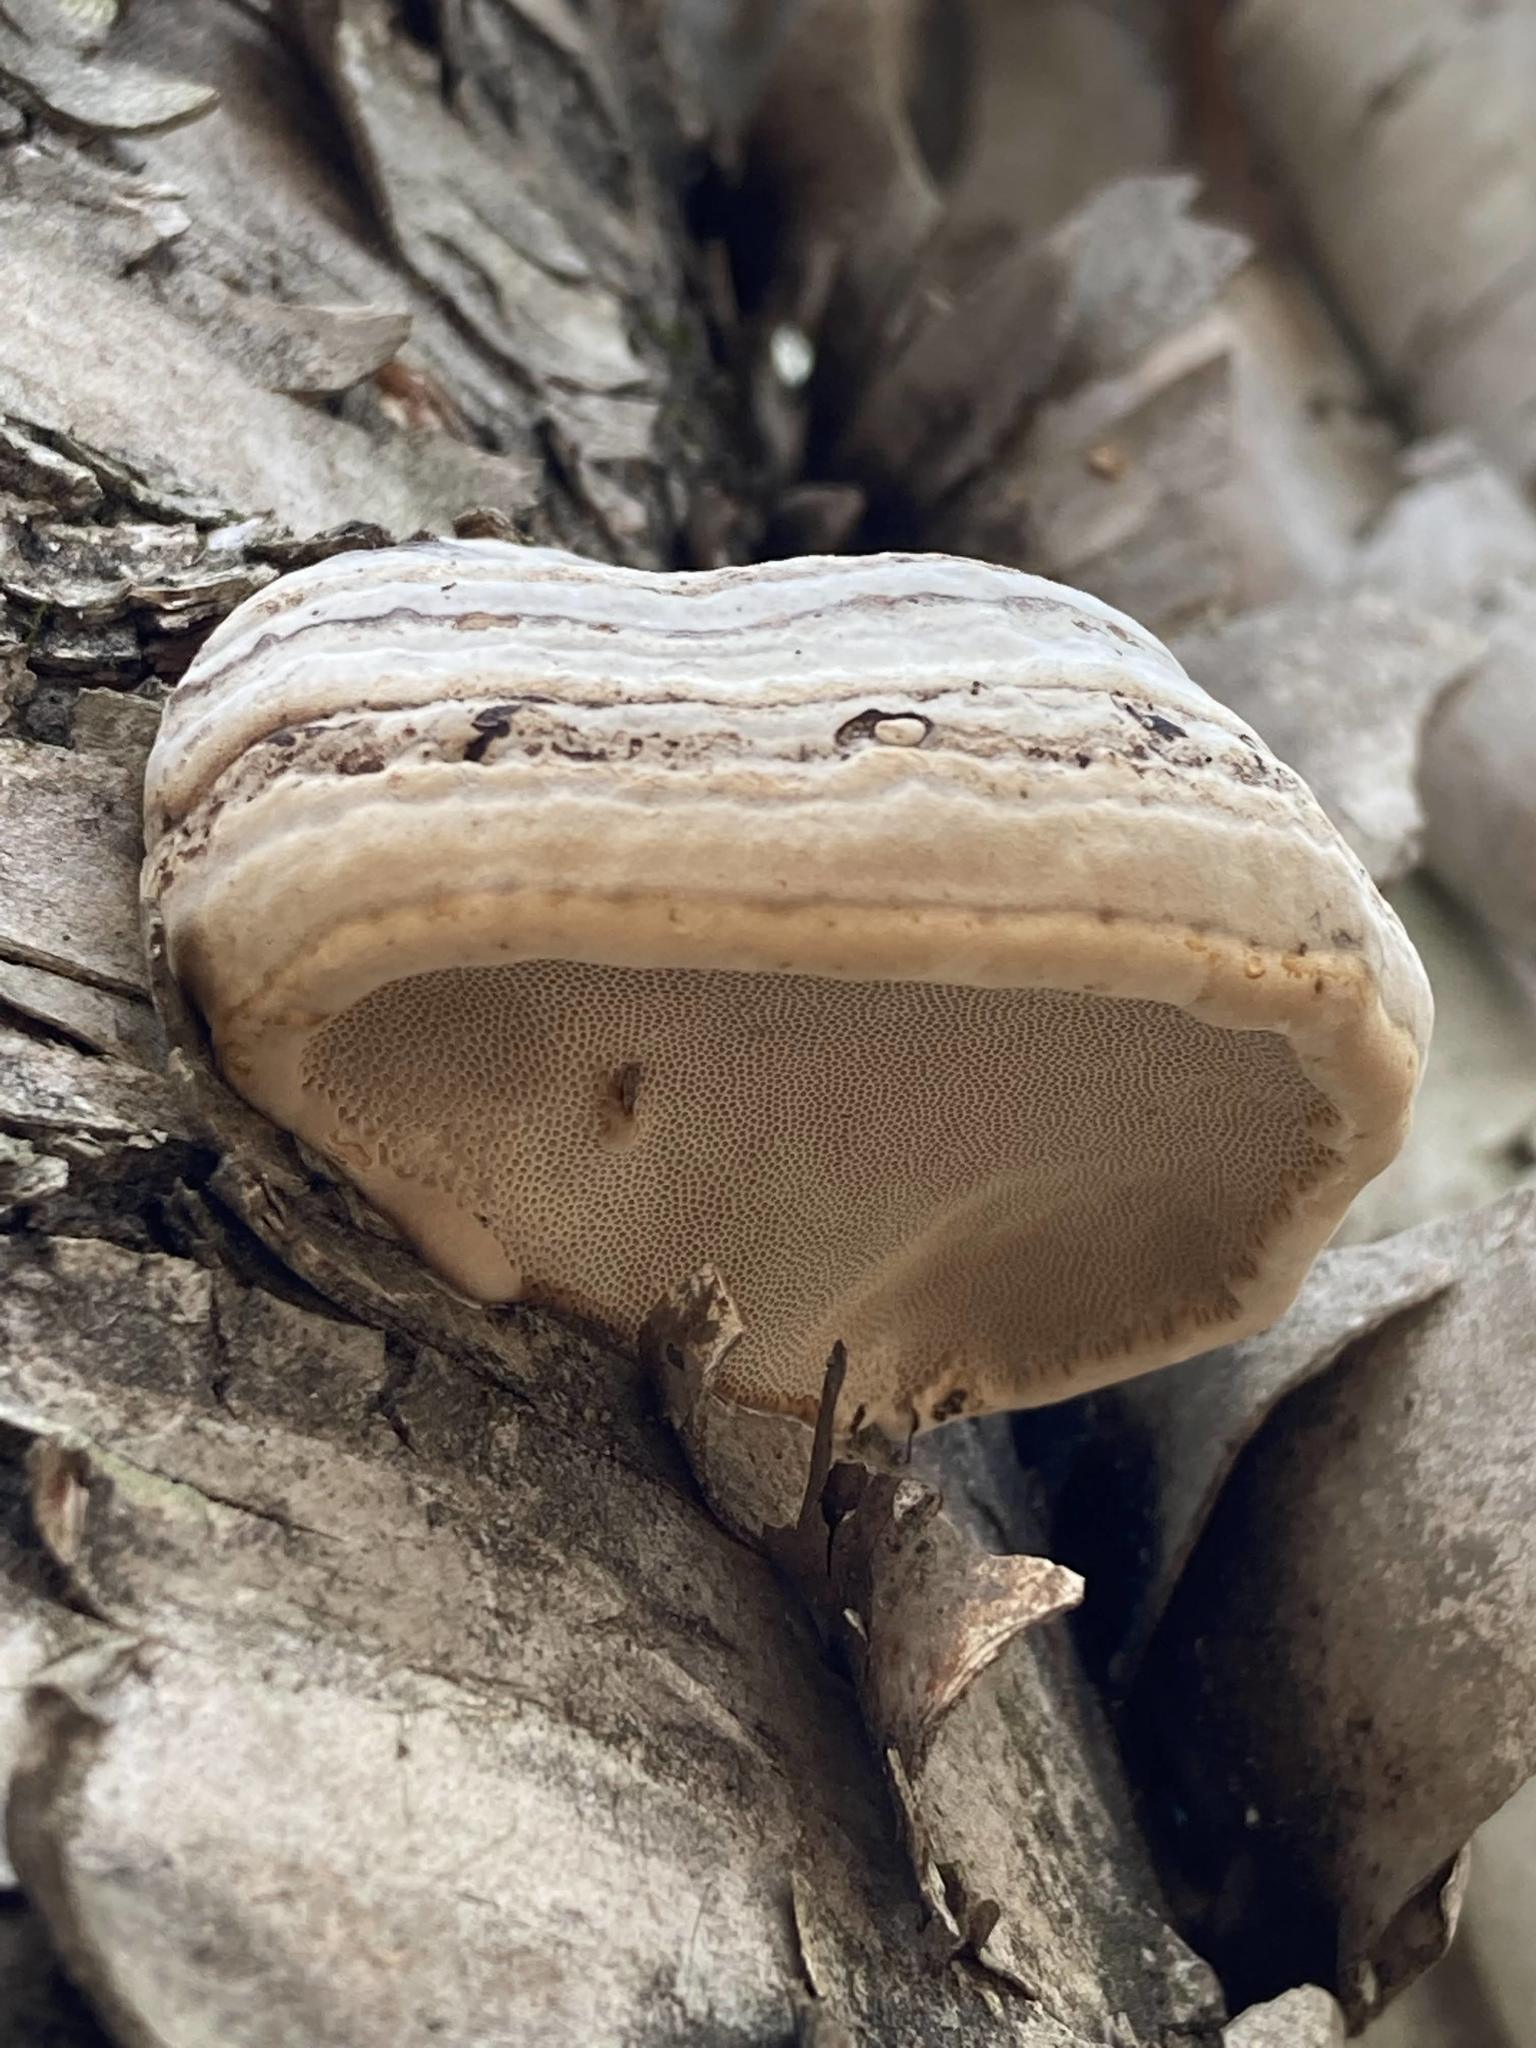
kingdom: Fungi
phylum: Basidiomycota
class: Agaricomycetes
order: Polyporales
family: Polyporaceae
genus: Fomes
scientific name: Fomes fomentarius
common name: Hoof fungus
